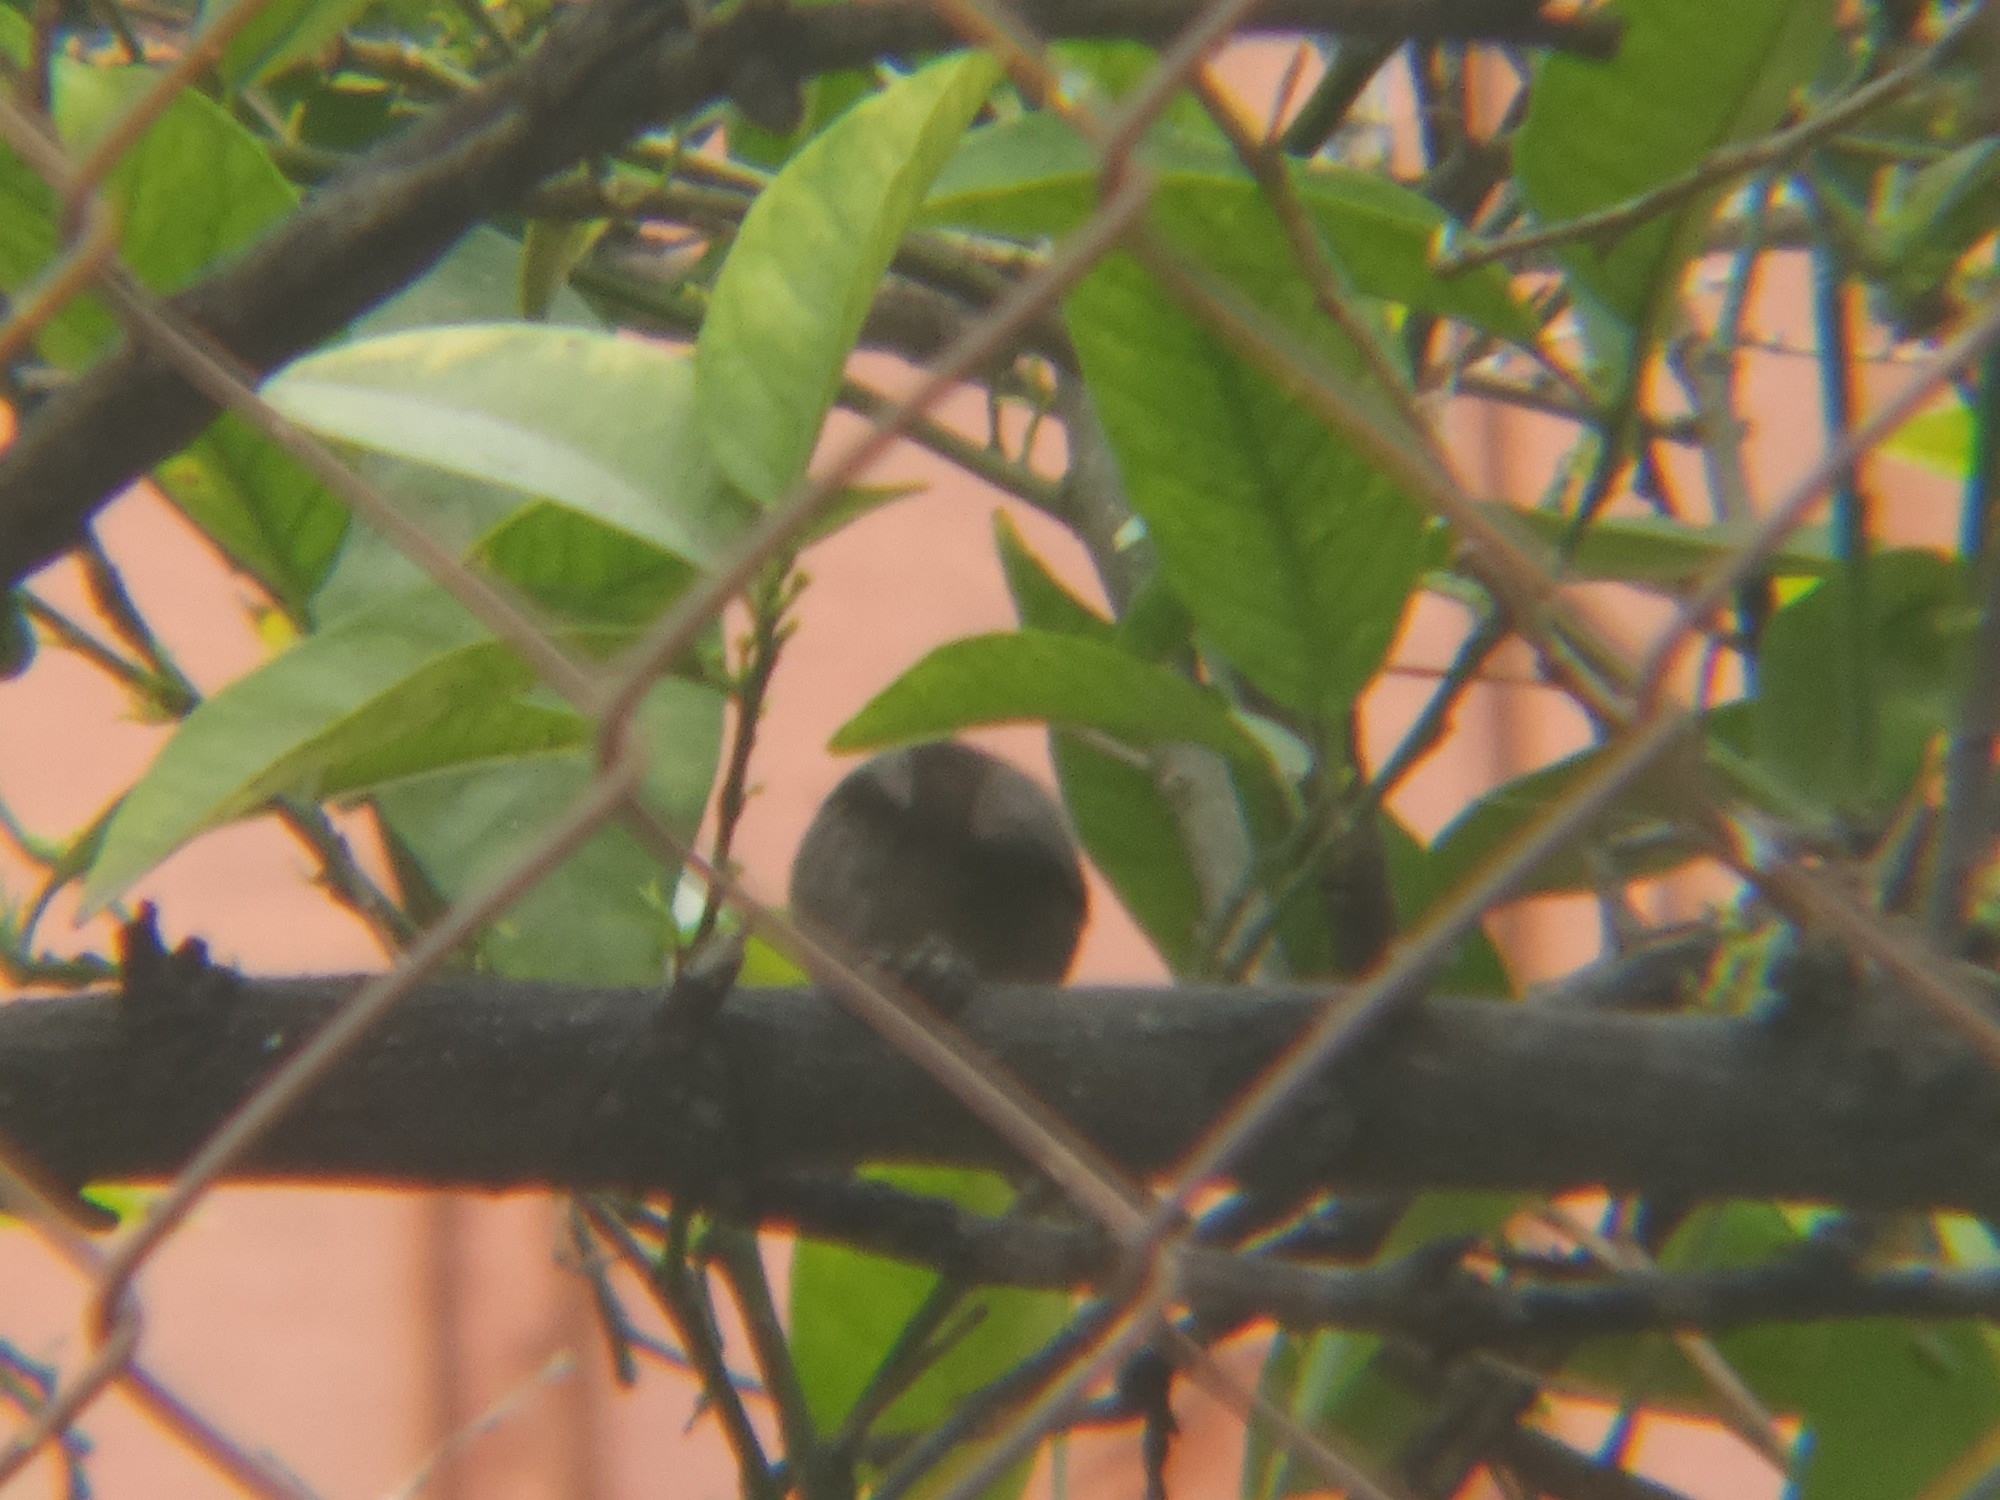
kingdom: Animalia
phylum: Chordata
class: Aves
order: Passeriformes
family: Aegithalidae
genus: Psaltriparus
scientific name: Psaltriparus minimus
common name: American bushtit
